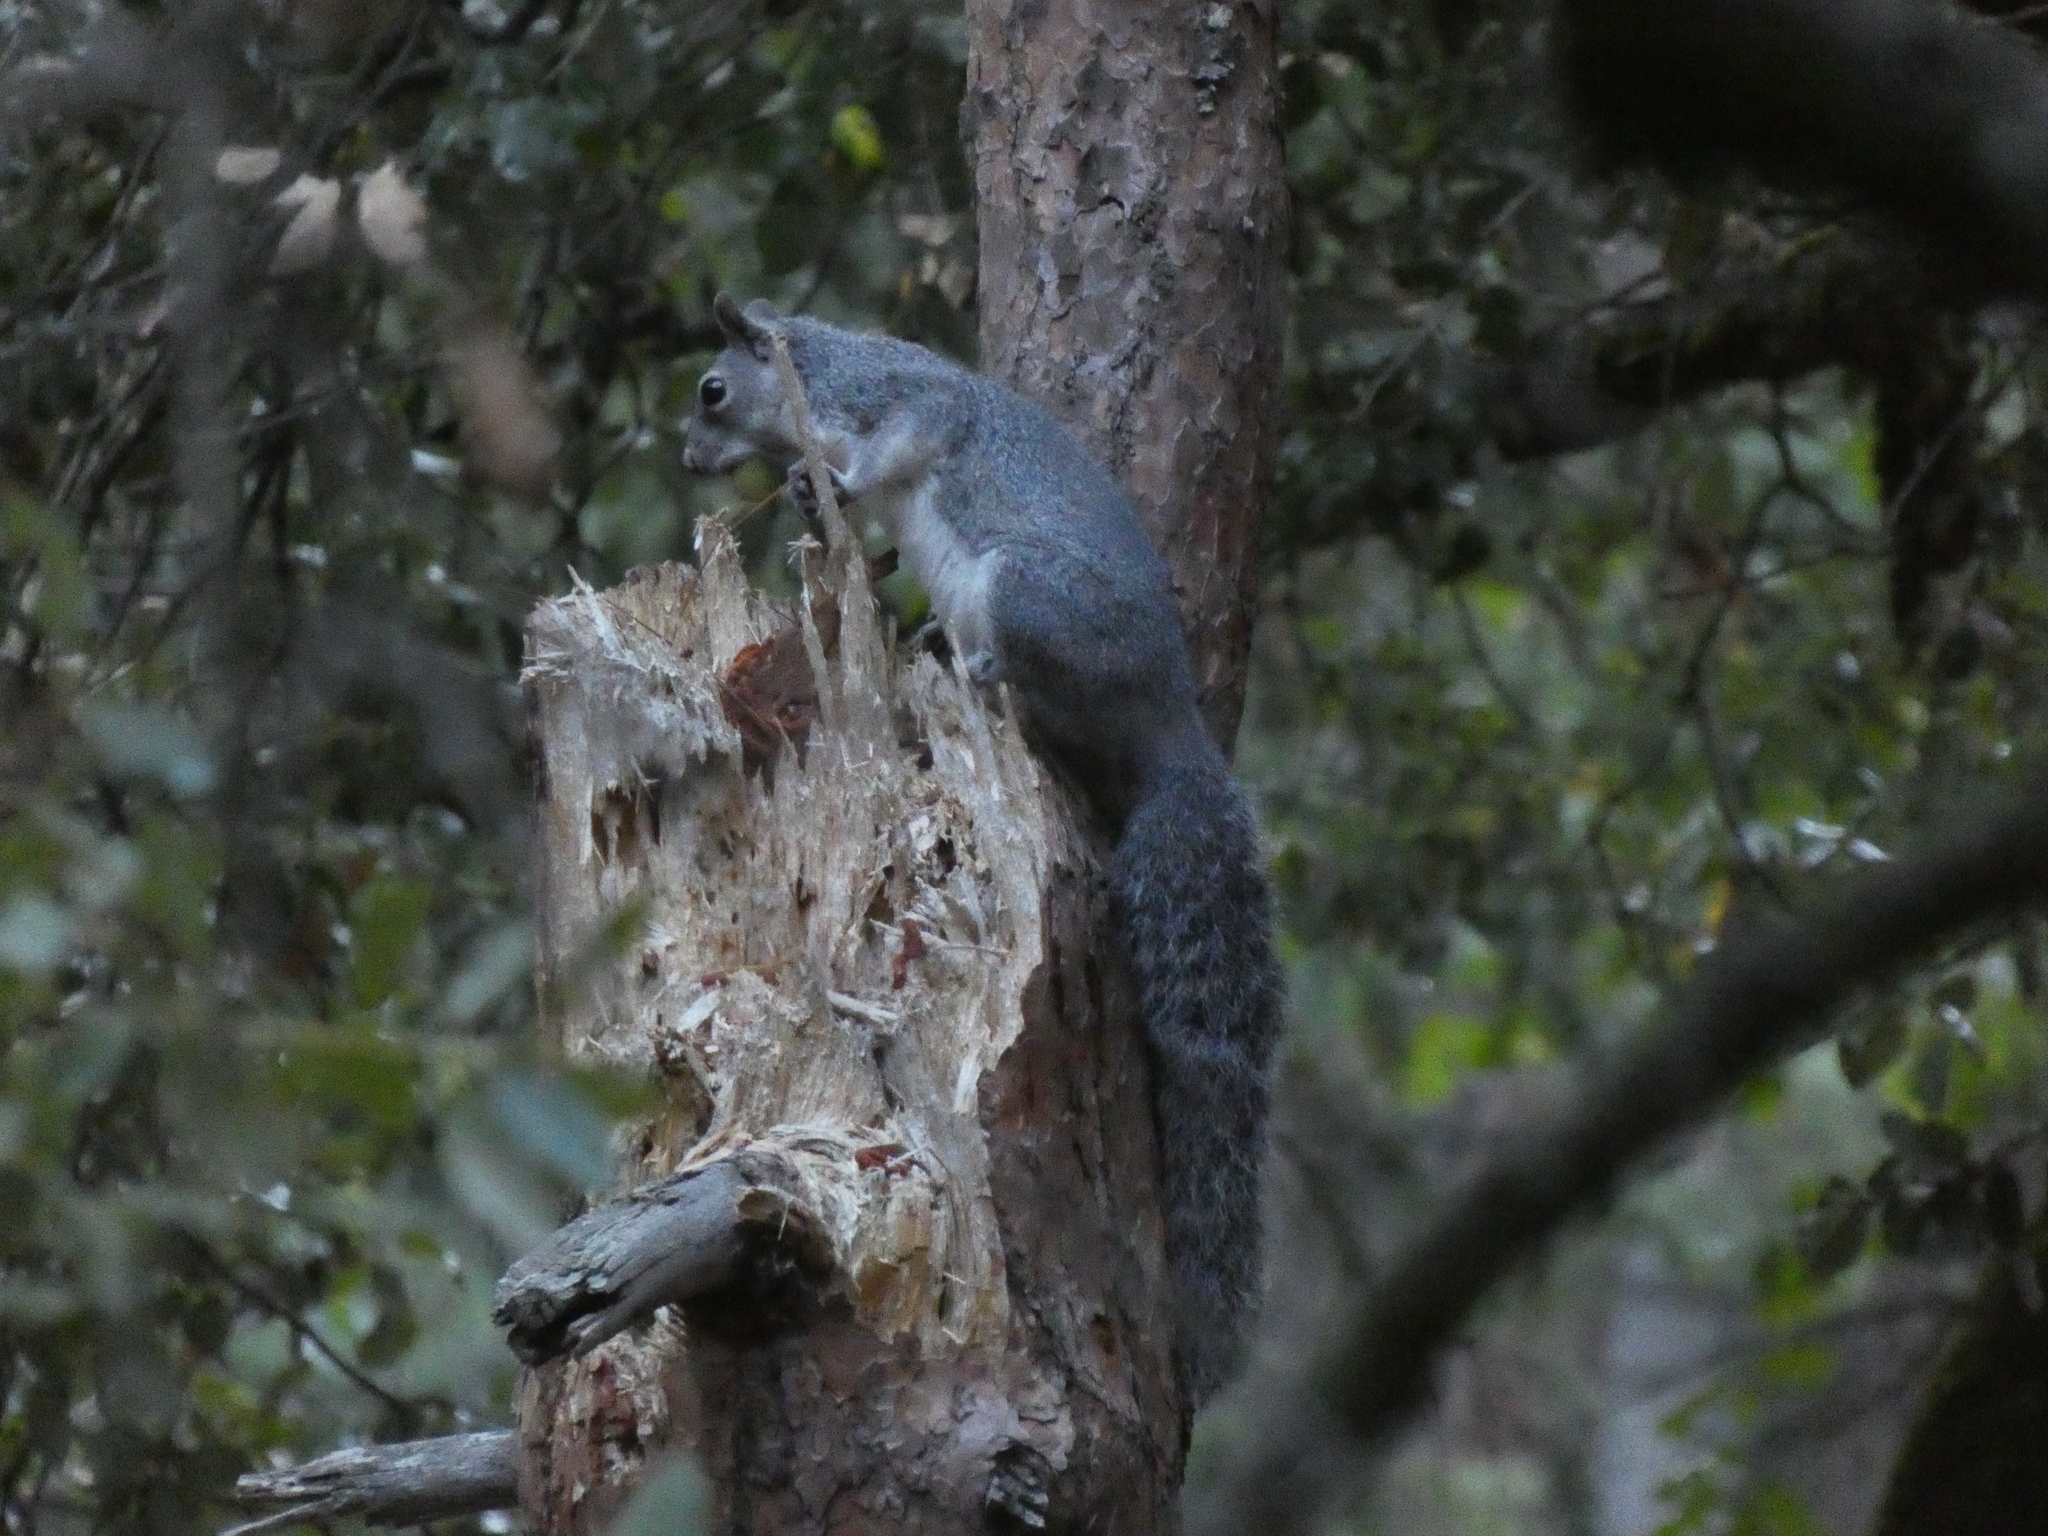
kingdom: Animalia
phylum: Chordata
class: Mammalia
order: Rodentia
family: Sciuridae
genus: Sciurus
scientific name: Sciurus griseus
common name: Western gray squirrel
